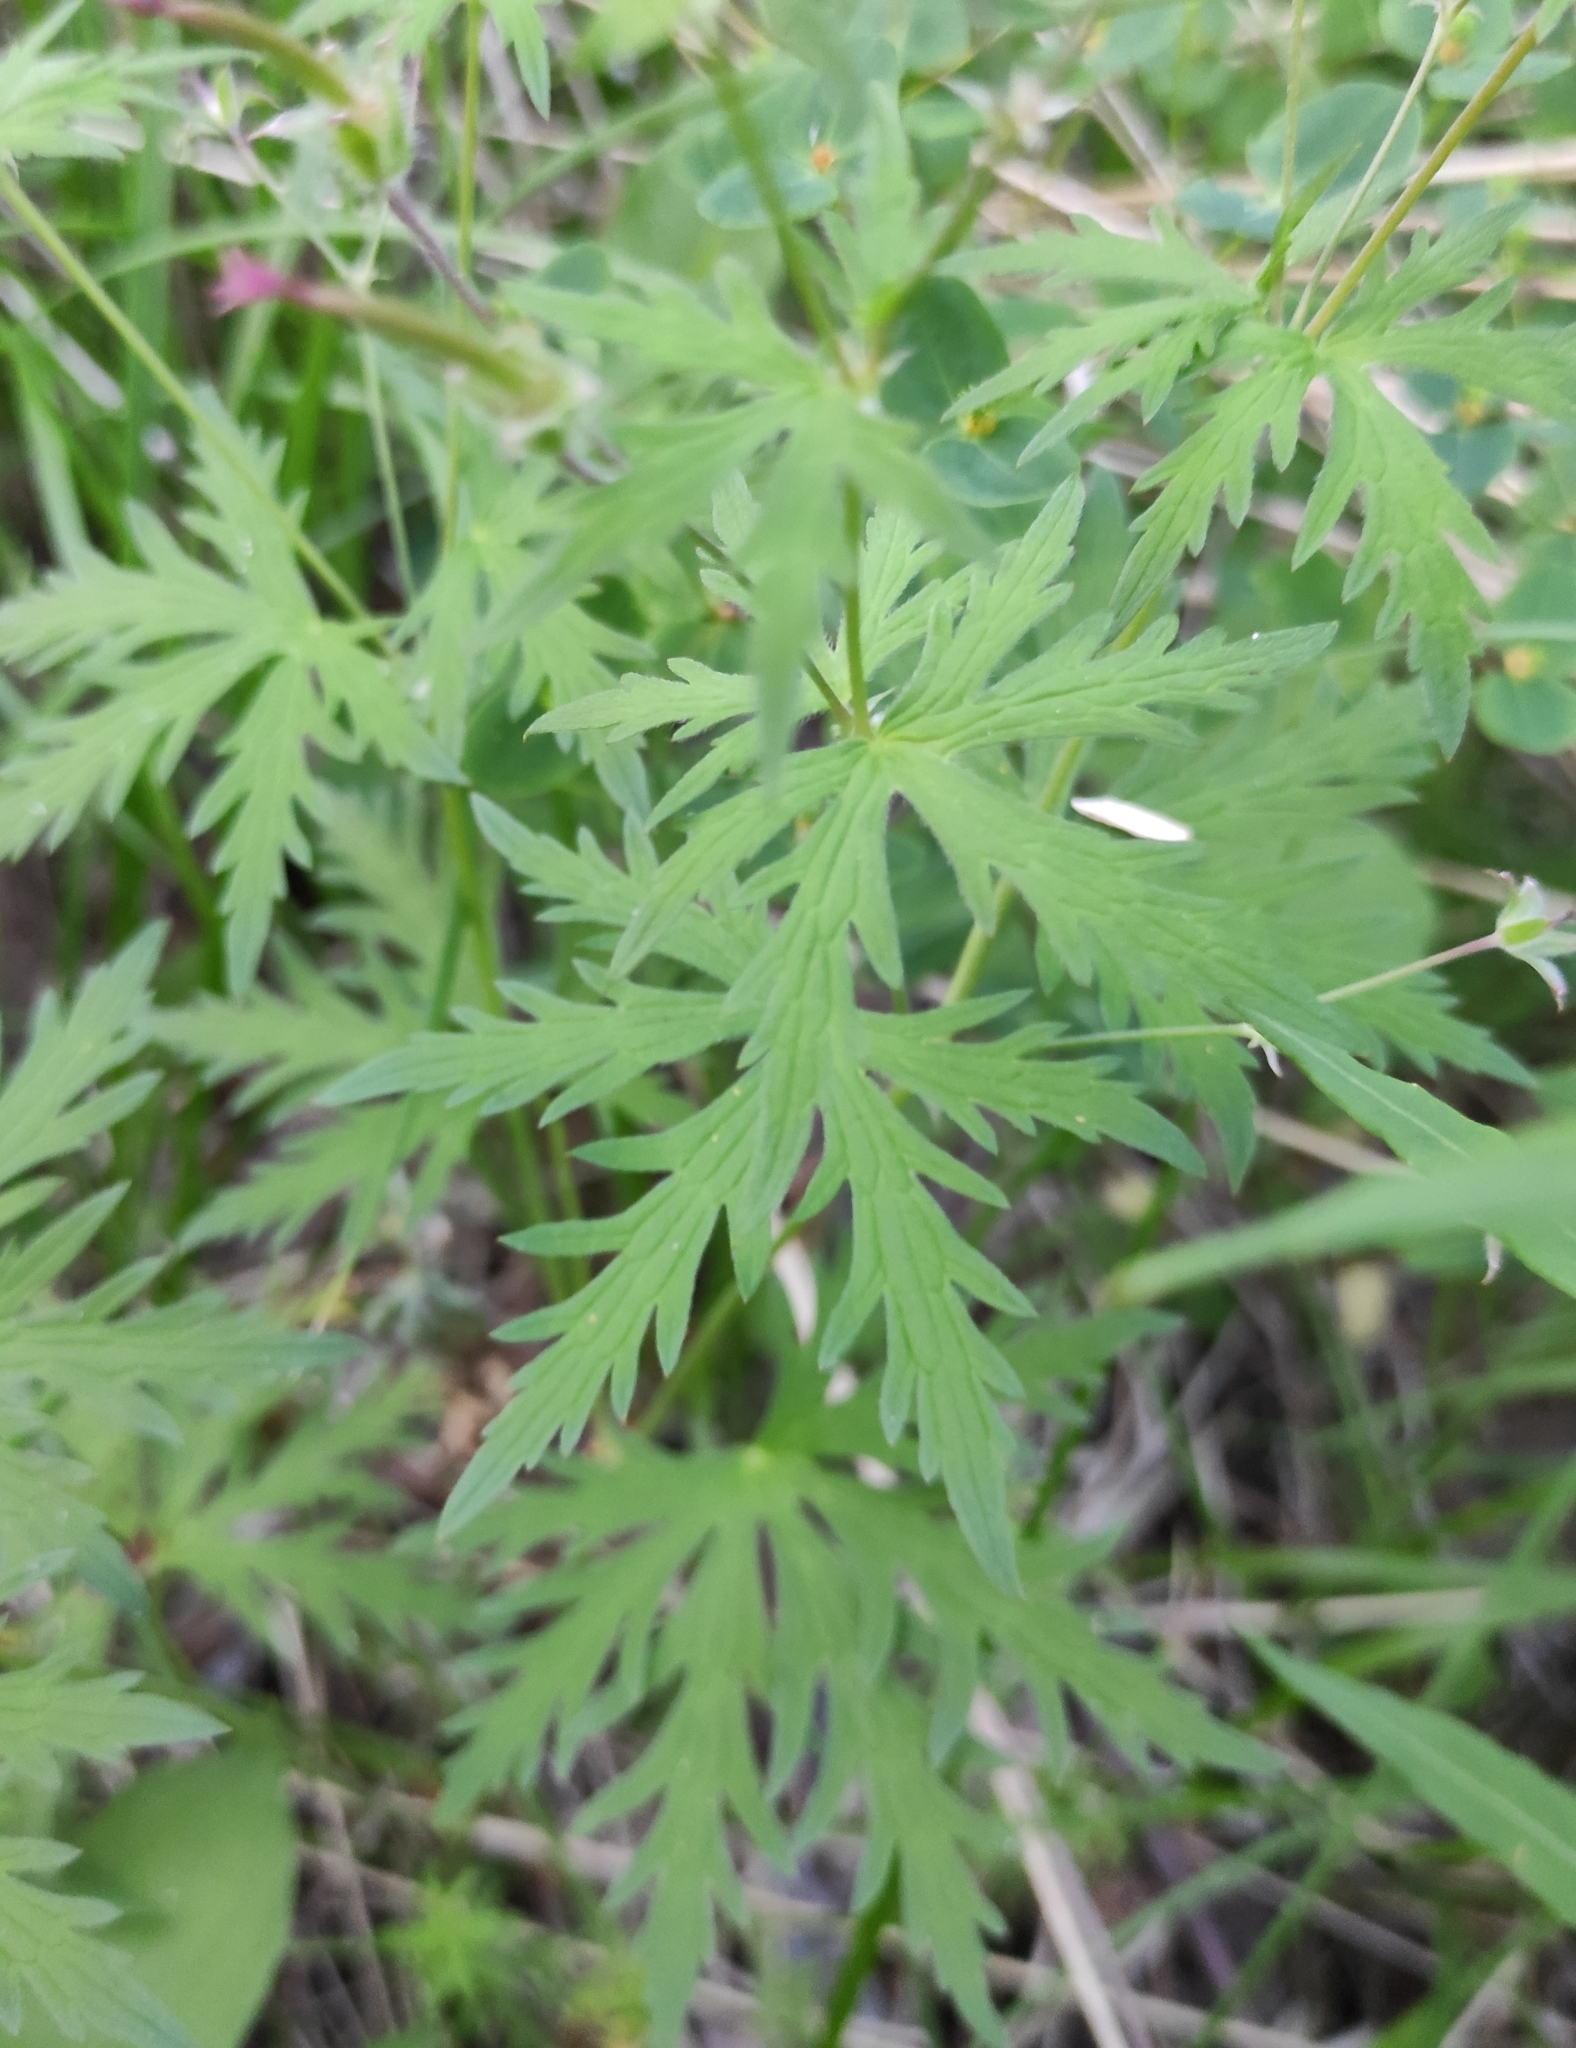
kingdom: Plantae
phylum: Tracheophyta
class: Magnoliopsida
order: Geraniales
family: Geraniaceae
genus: Geranium
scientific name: Geranium pseudosibiricum
